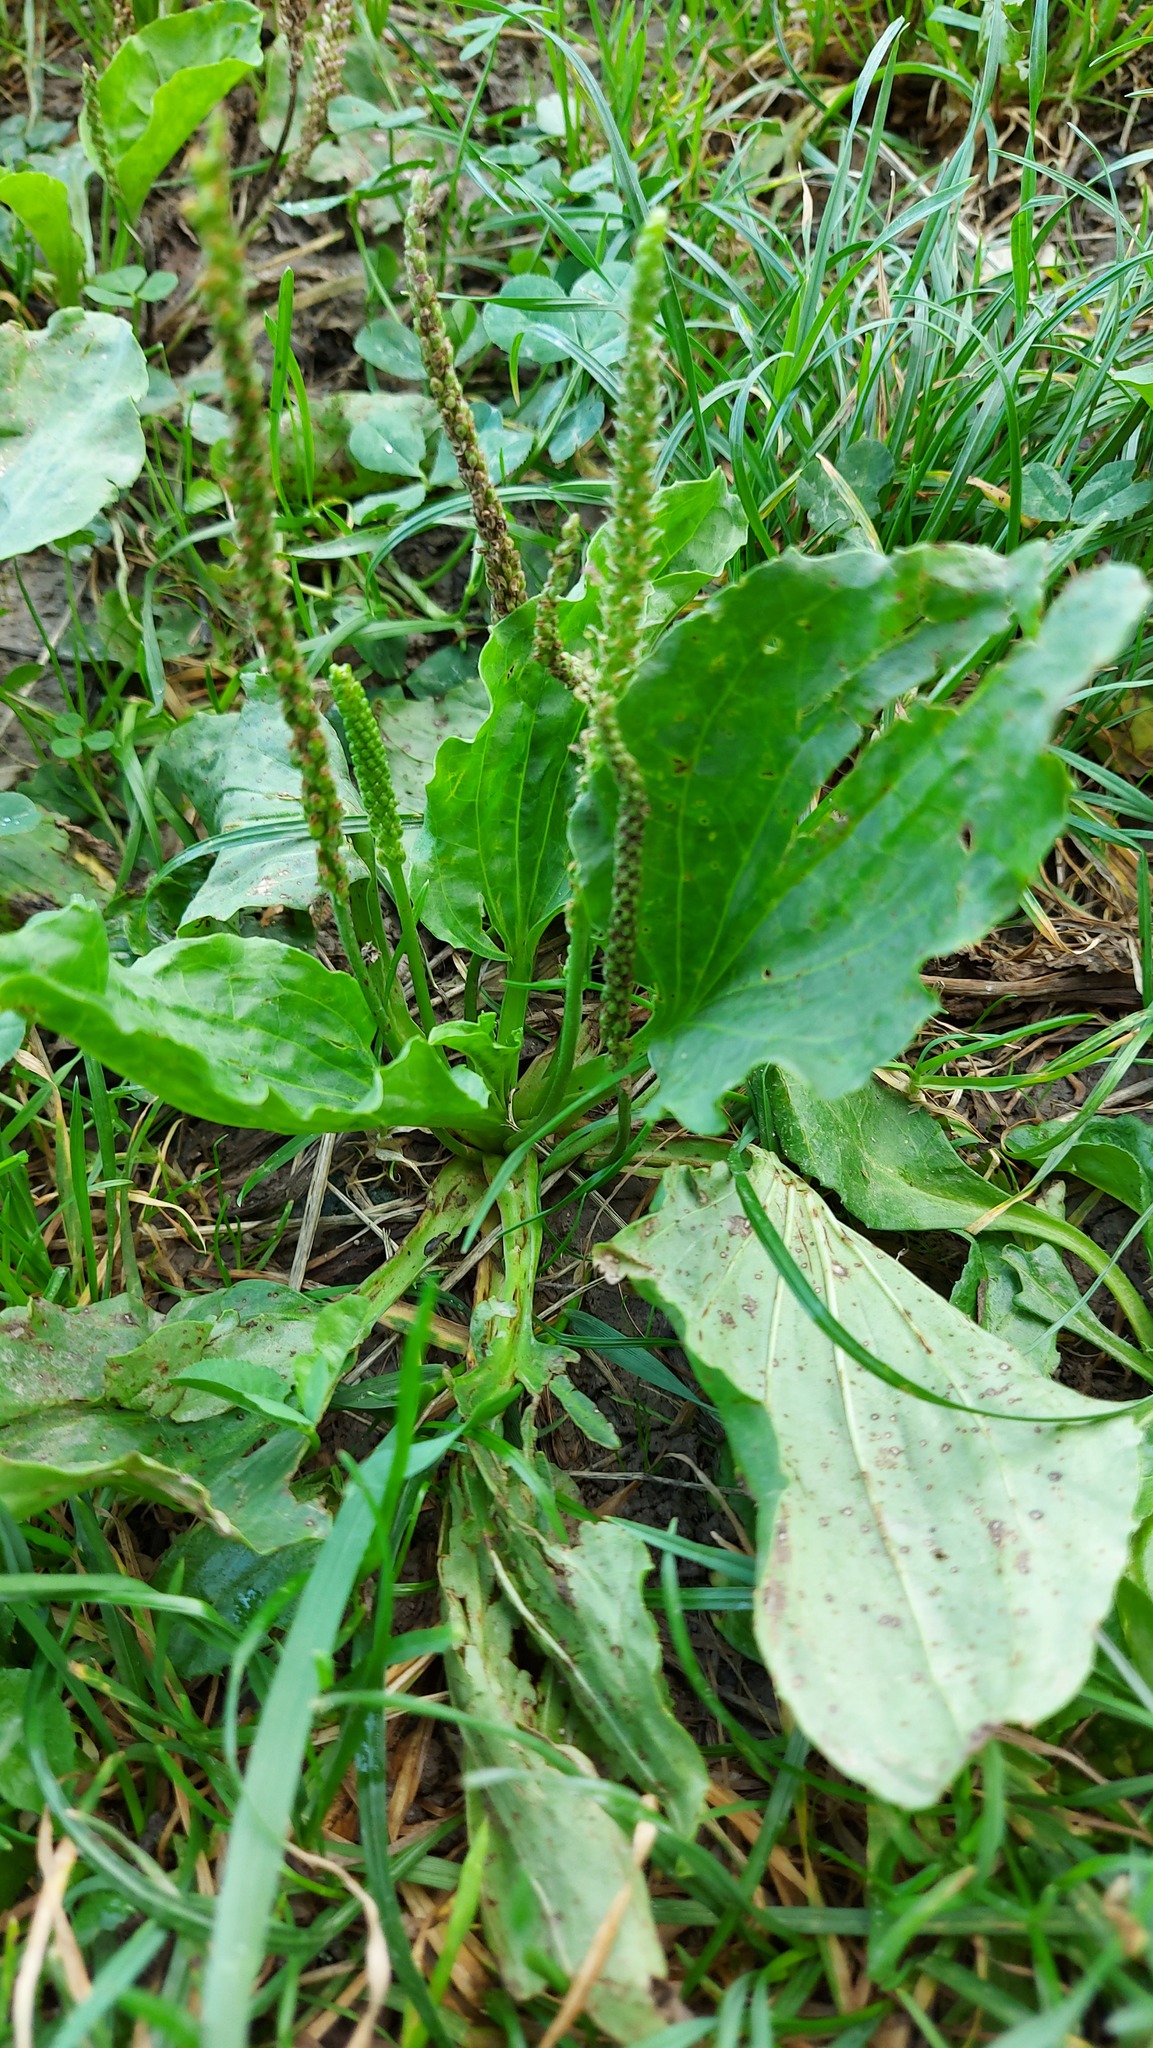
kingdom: Plantae
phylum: Tracheophyta
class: Magnoliopsida
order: Lamiales
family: Plantaginaceae
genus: Plantago
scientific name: Plantago major
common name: Common plantain
